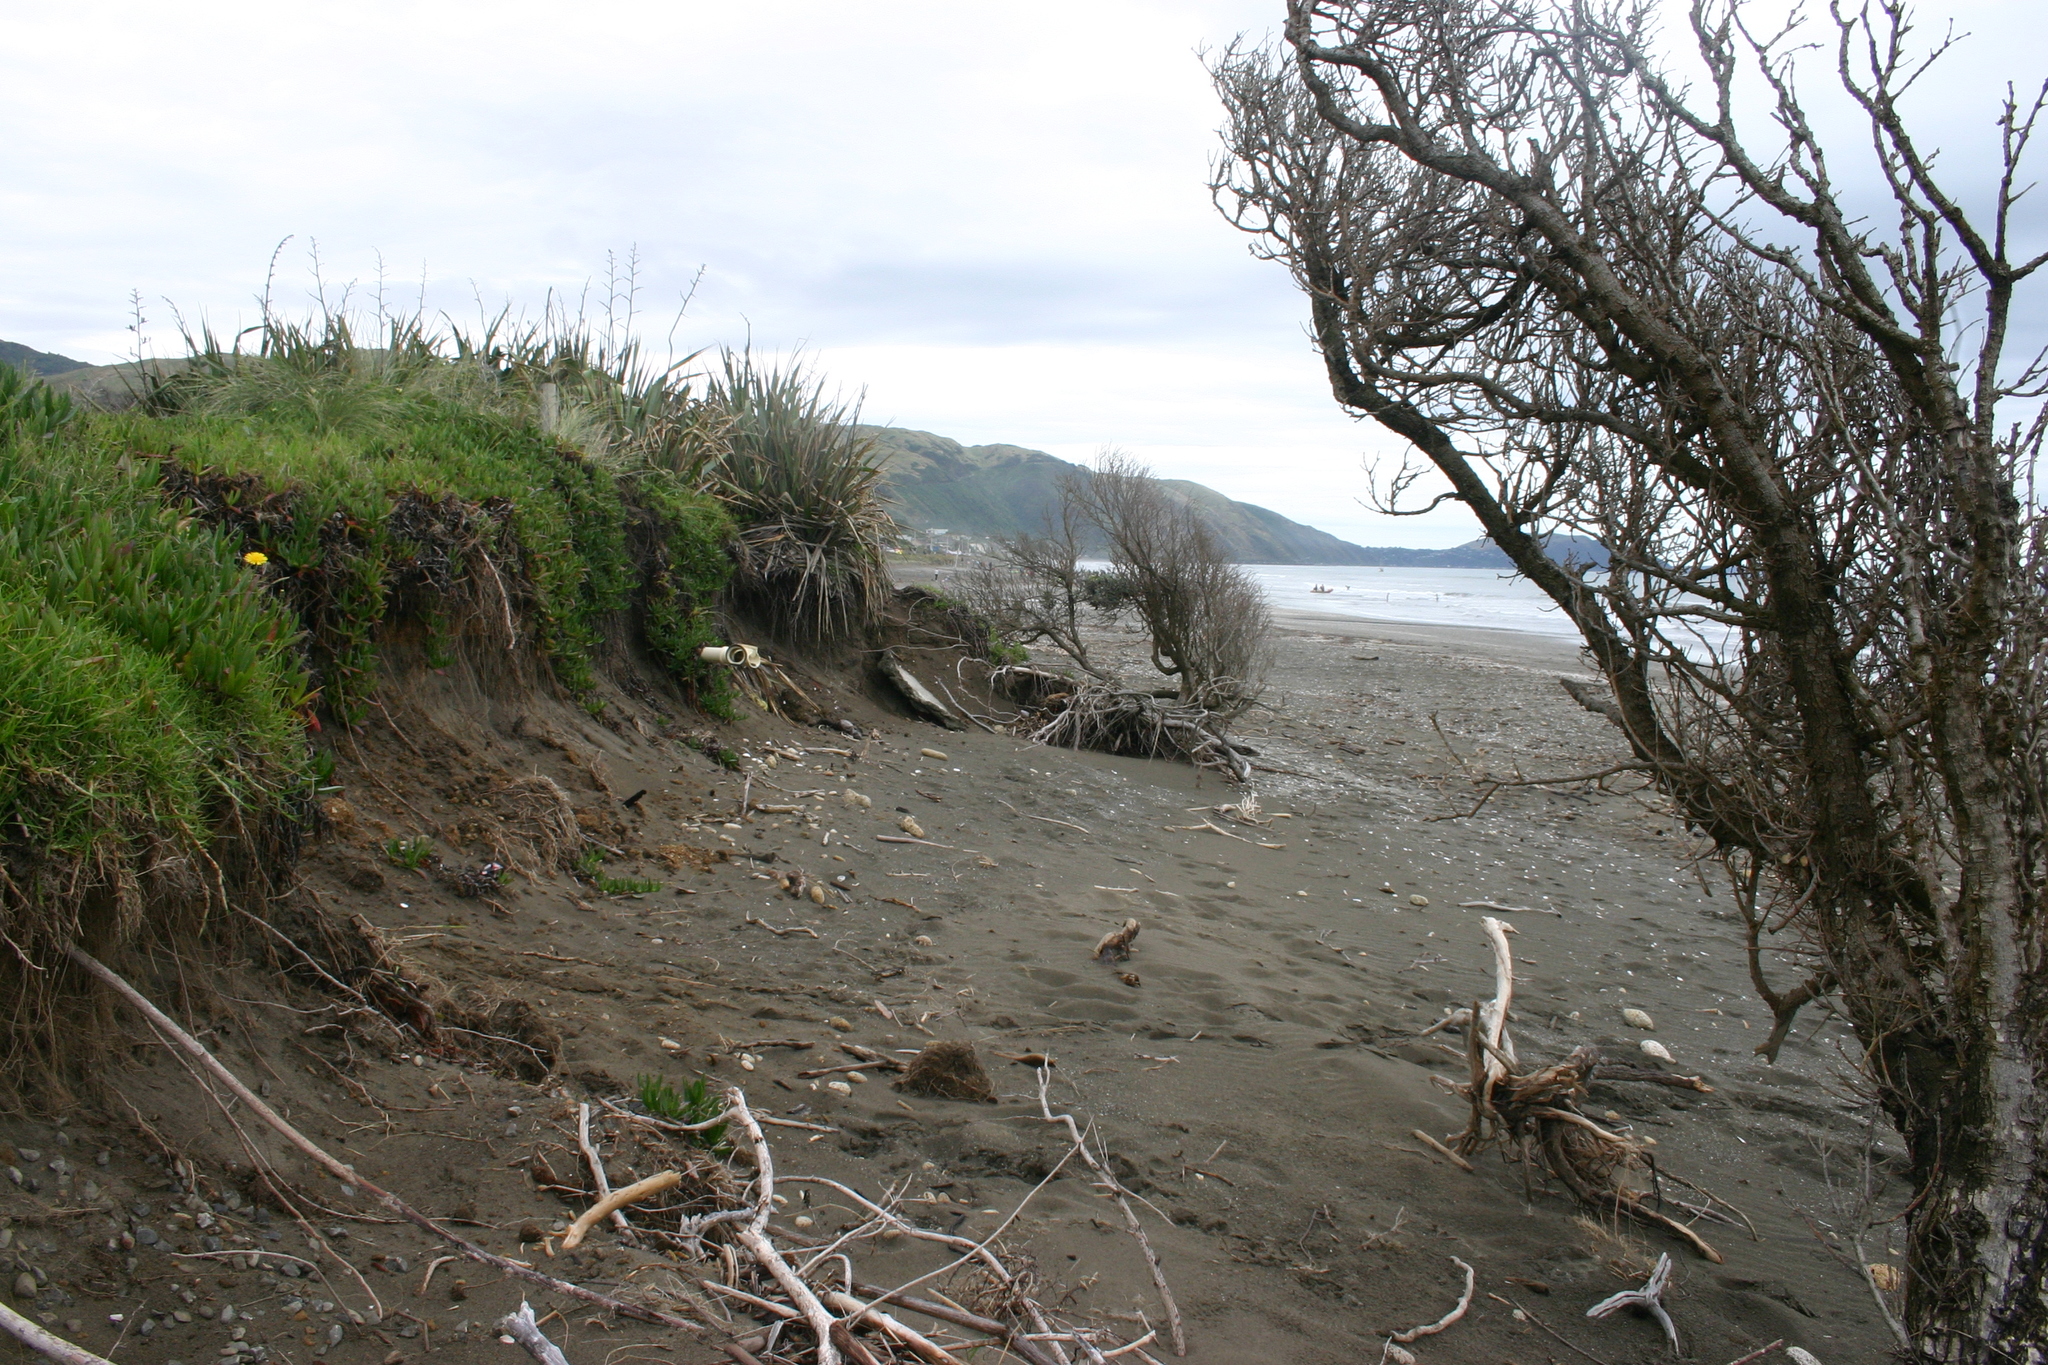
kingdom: Plantae
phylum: Tracheophyta
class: Magnoliopsida
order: Myrtales
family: Myrtaceae
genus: Metrosideros
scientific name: Metrosideros excelsa
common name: New zealand christmastree
